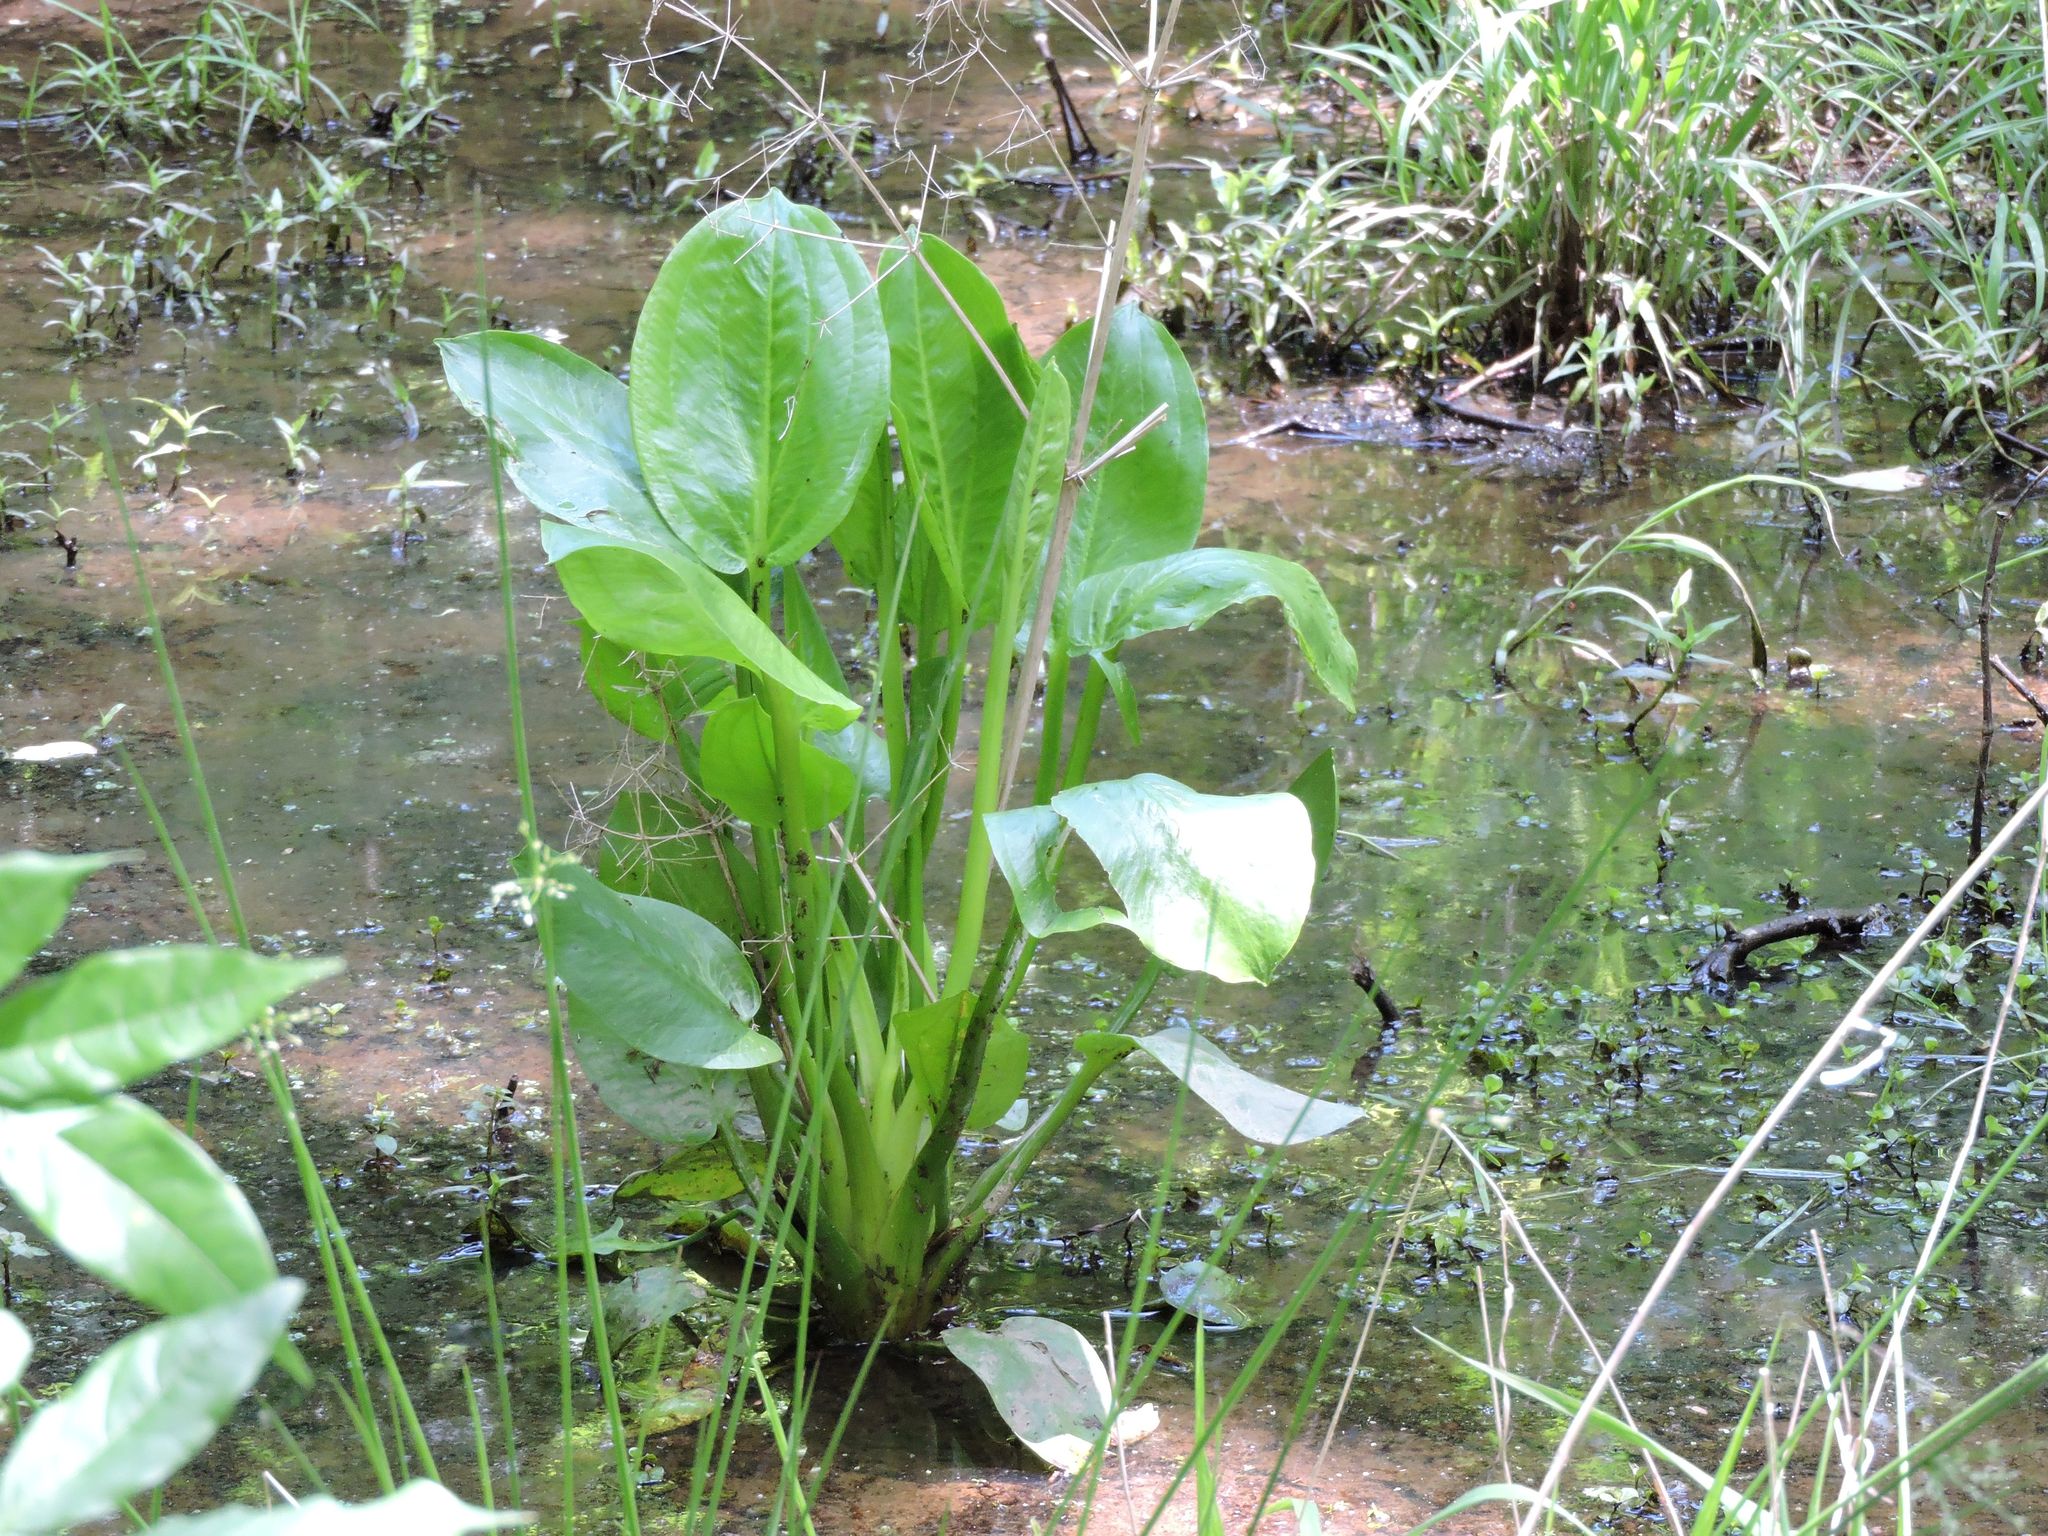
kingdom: Plantae
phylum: Tracheophyta
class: Liliopsida
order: Alismatales
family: Alismataceae
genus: Alisma
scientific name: Alisma subcordatum
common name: Southern water-plantain
